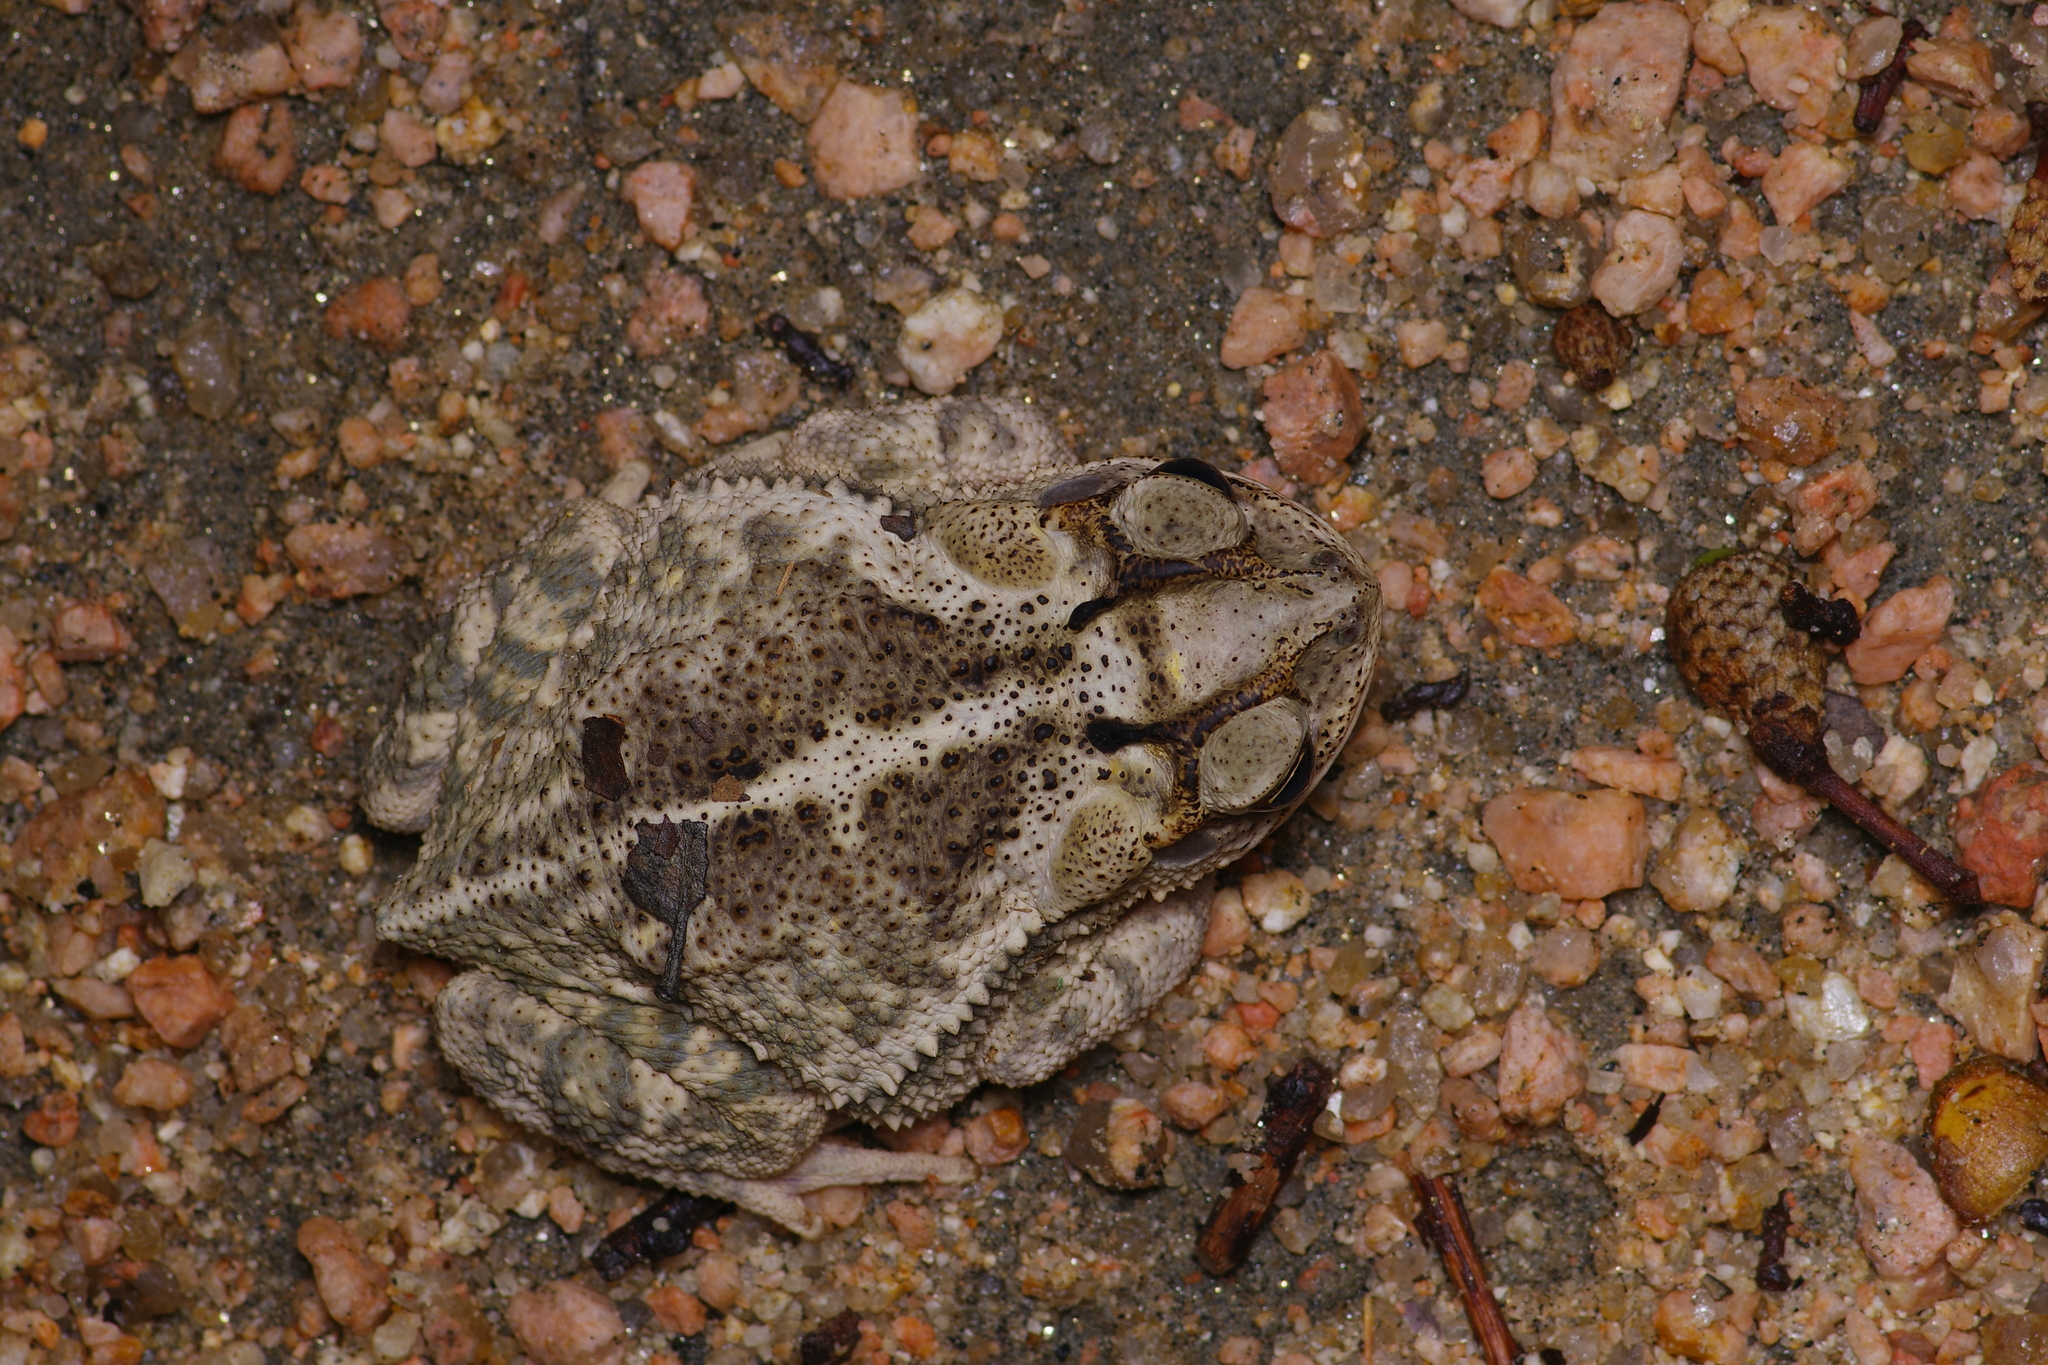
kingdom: Animalia
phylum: Chordata
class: Amphibia
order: Anura
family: Bufonidae
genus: Incilius
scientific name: Incilius nebulifer
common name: Gulf coast toad
